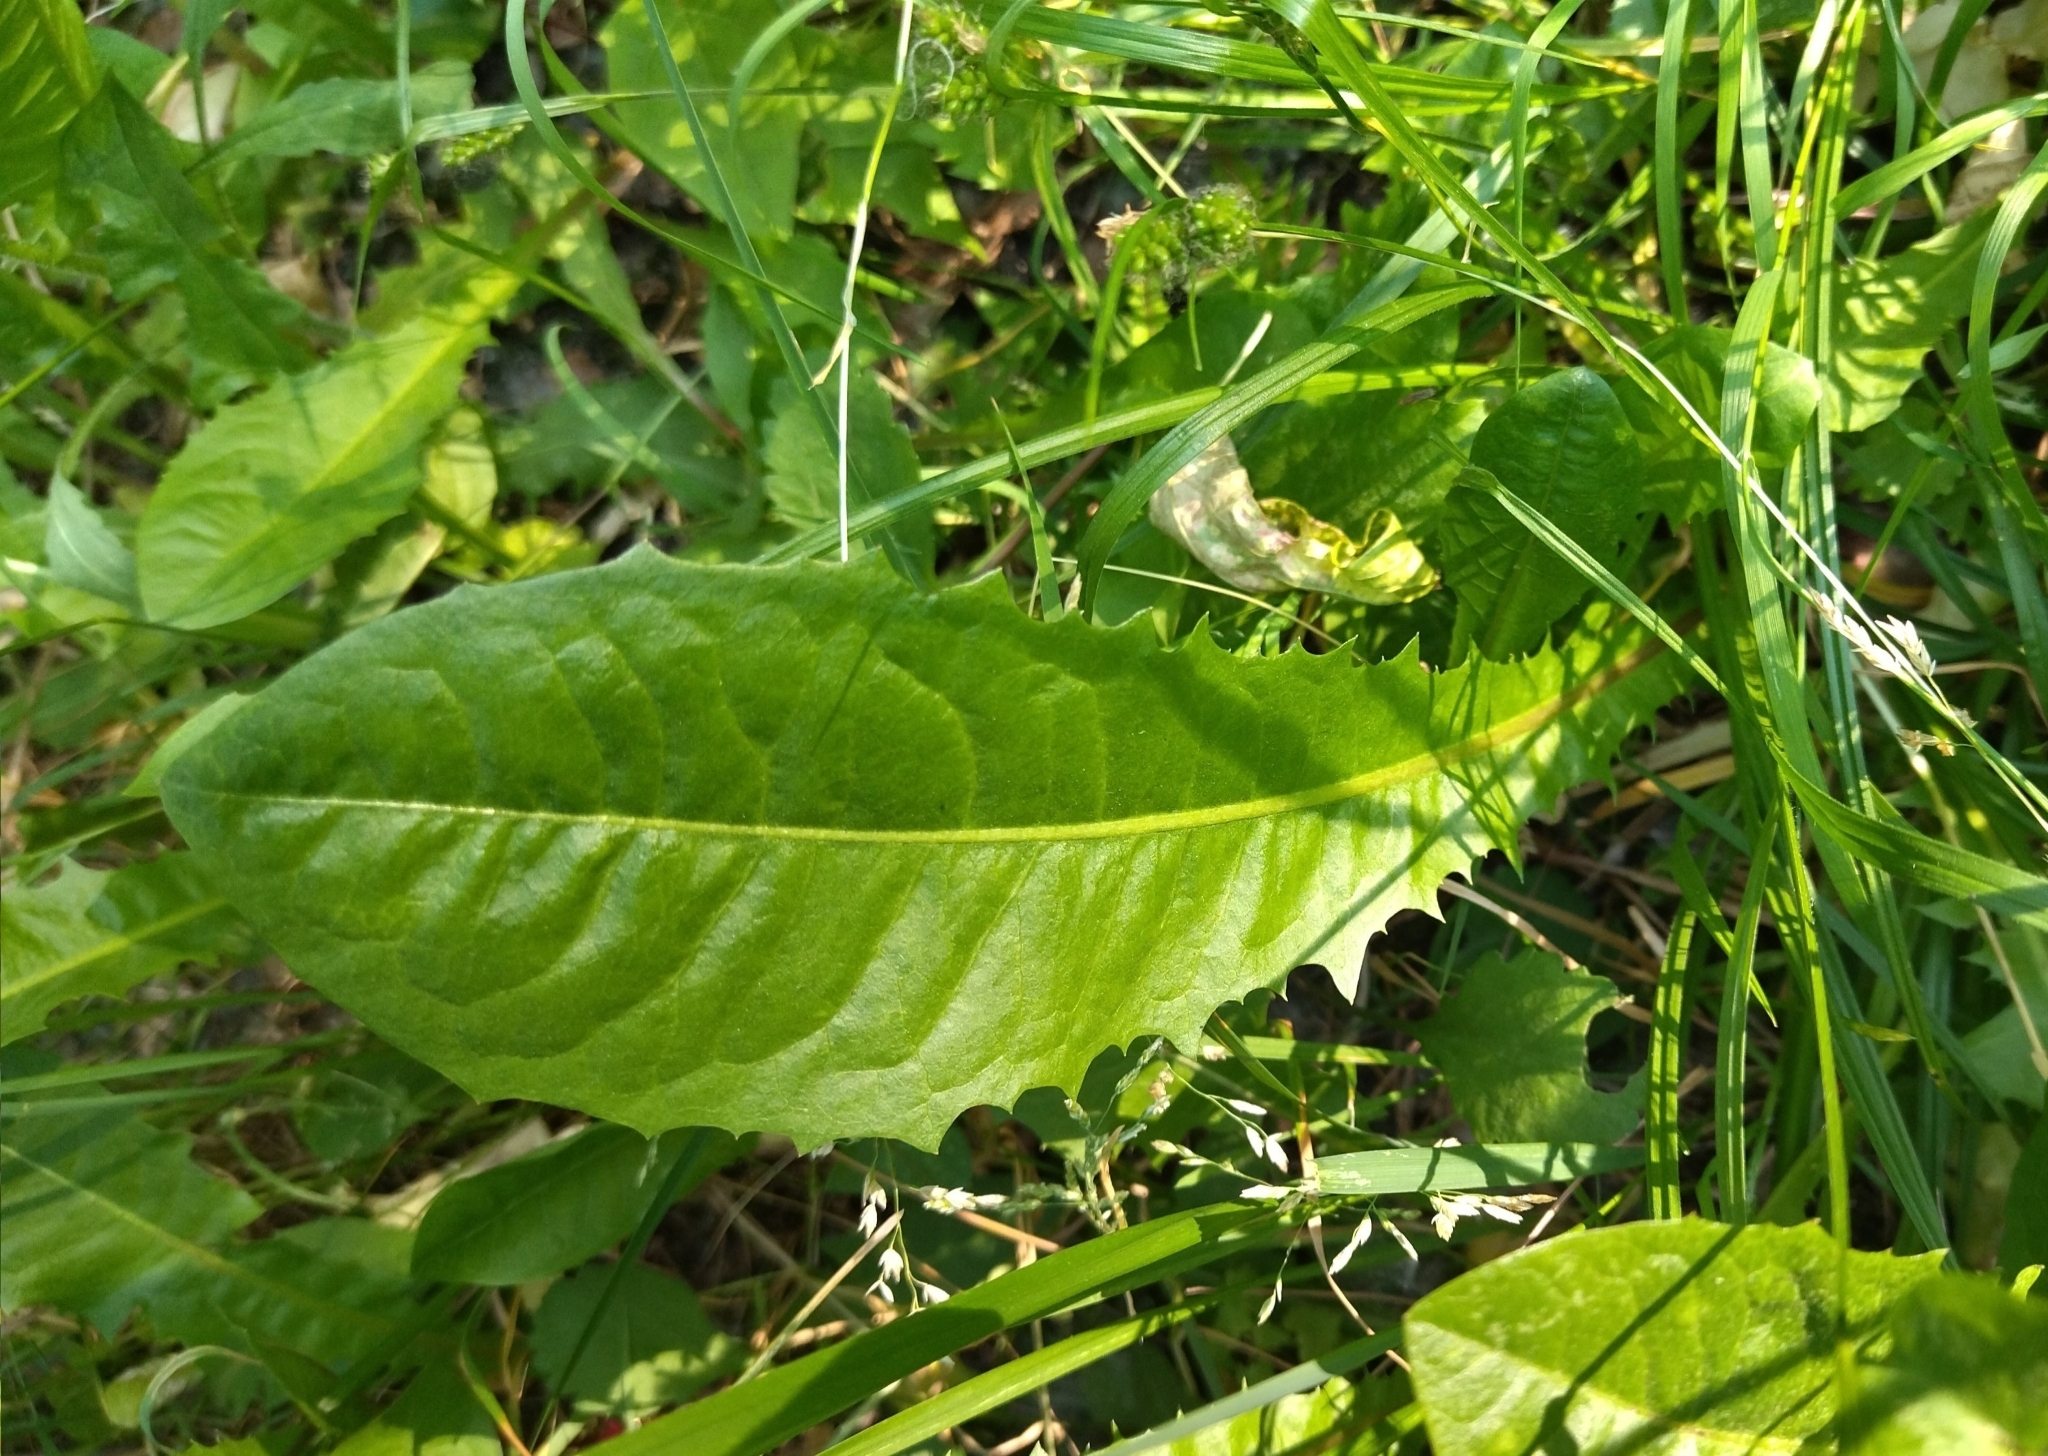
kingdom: Plantae
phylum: Tracheophyta
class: Magnoliopsida
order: Asterales
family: Asteraceae
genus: Taraxacum
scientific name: Taraxacum officinale
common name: Common dandelion
